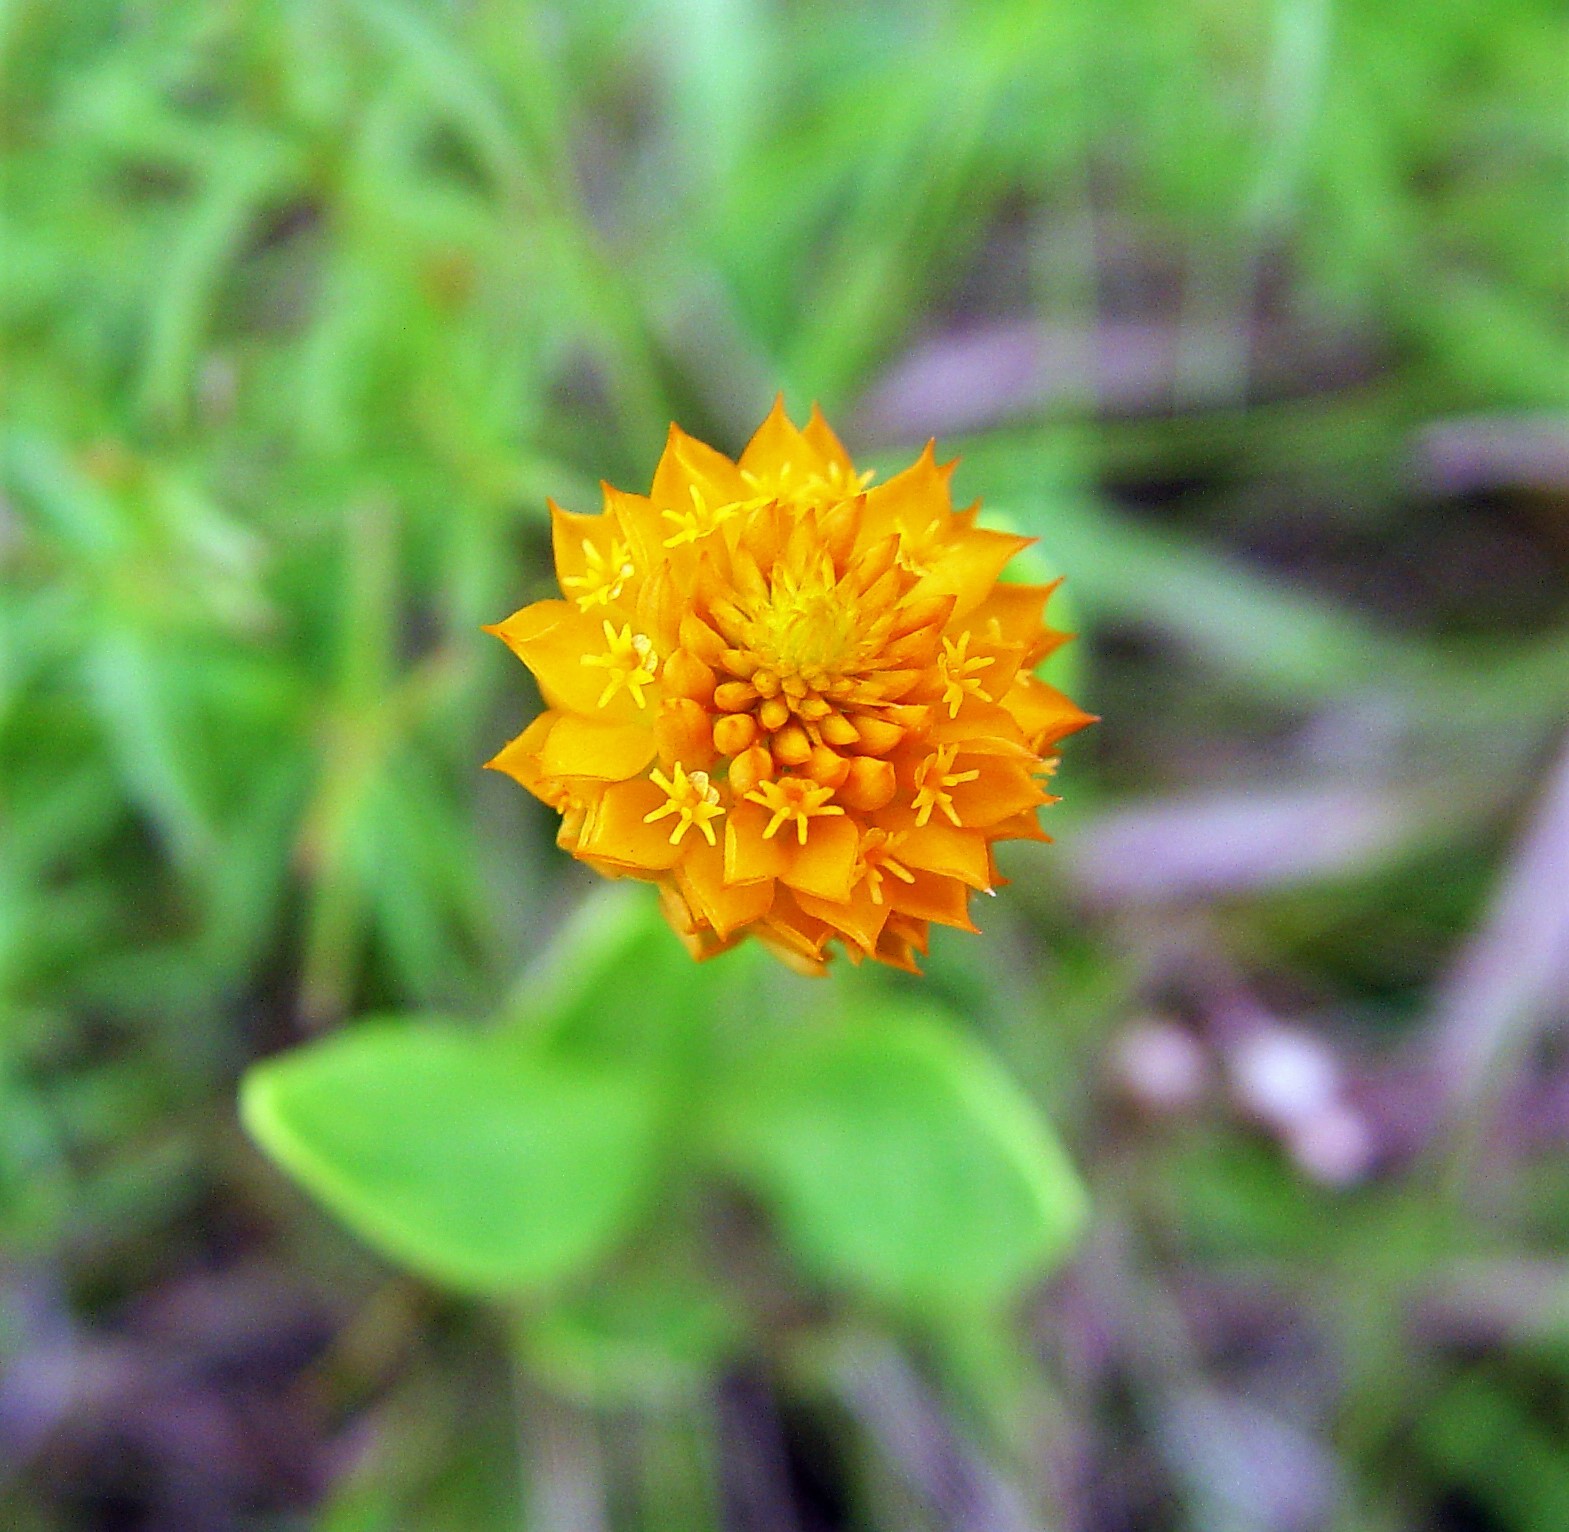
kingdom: Plantae
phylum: Tracheophyta
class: Magnoliopsida
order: Fabales
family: Polygalaceae
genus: Polygala
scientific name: Polygala lutea
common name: Orange milkwort
